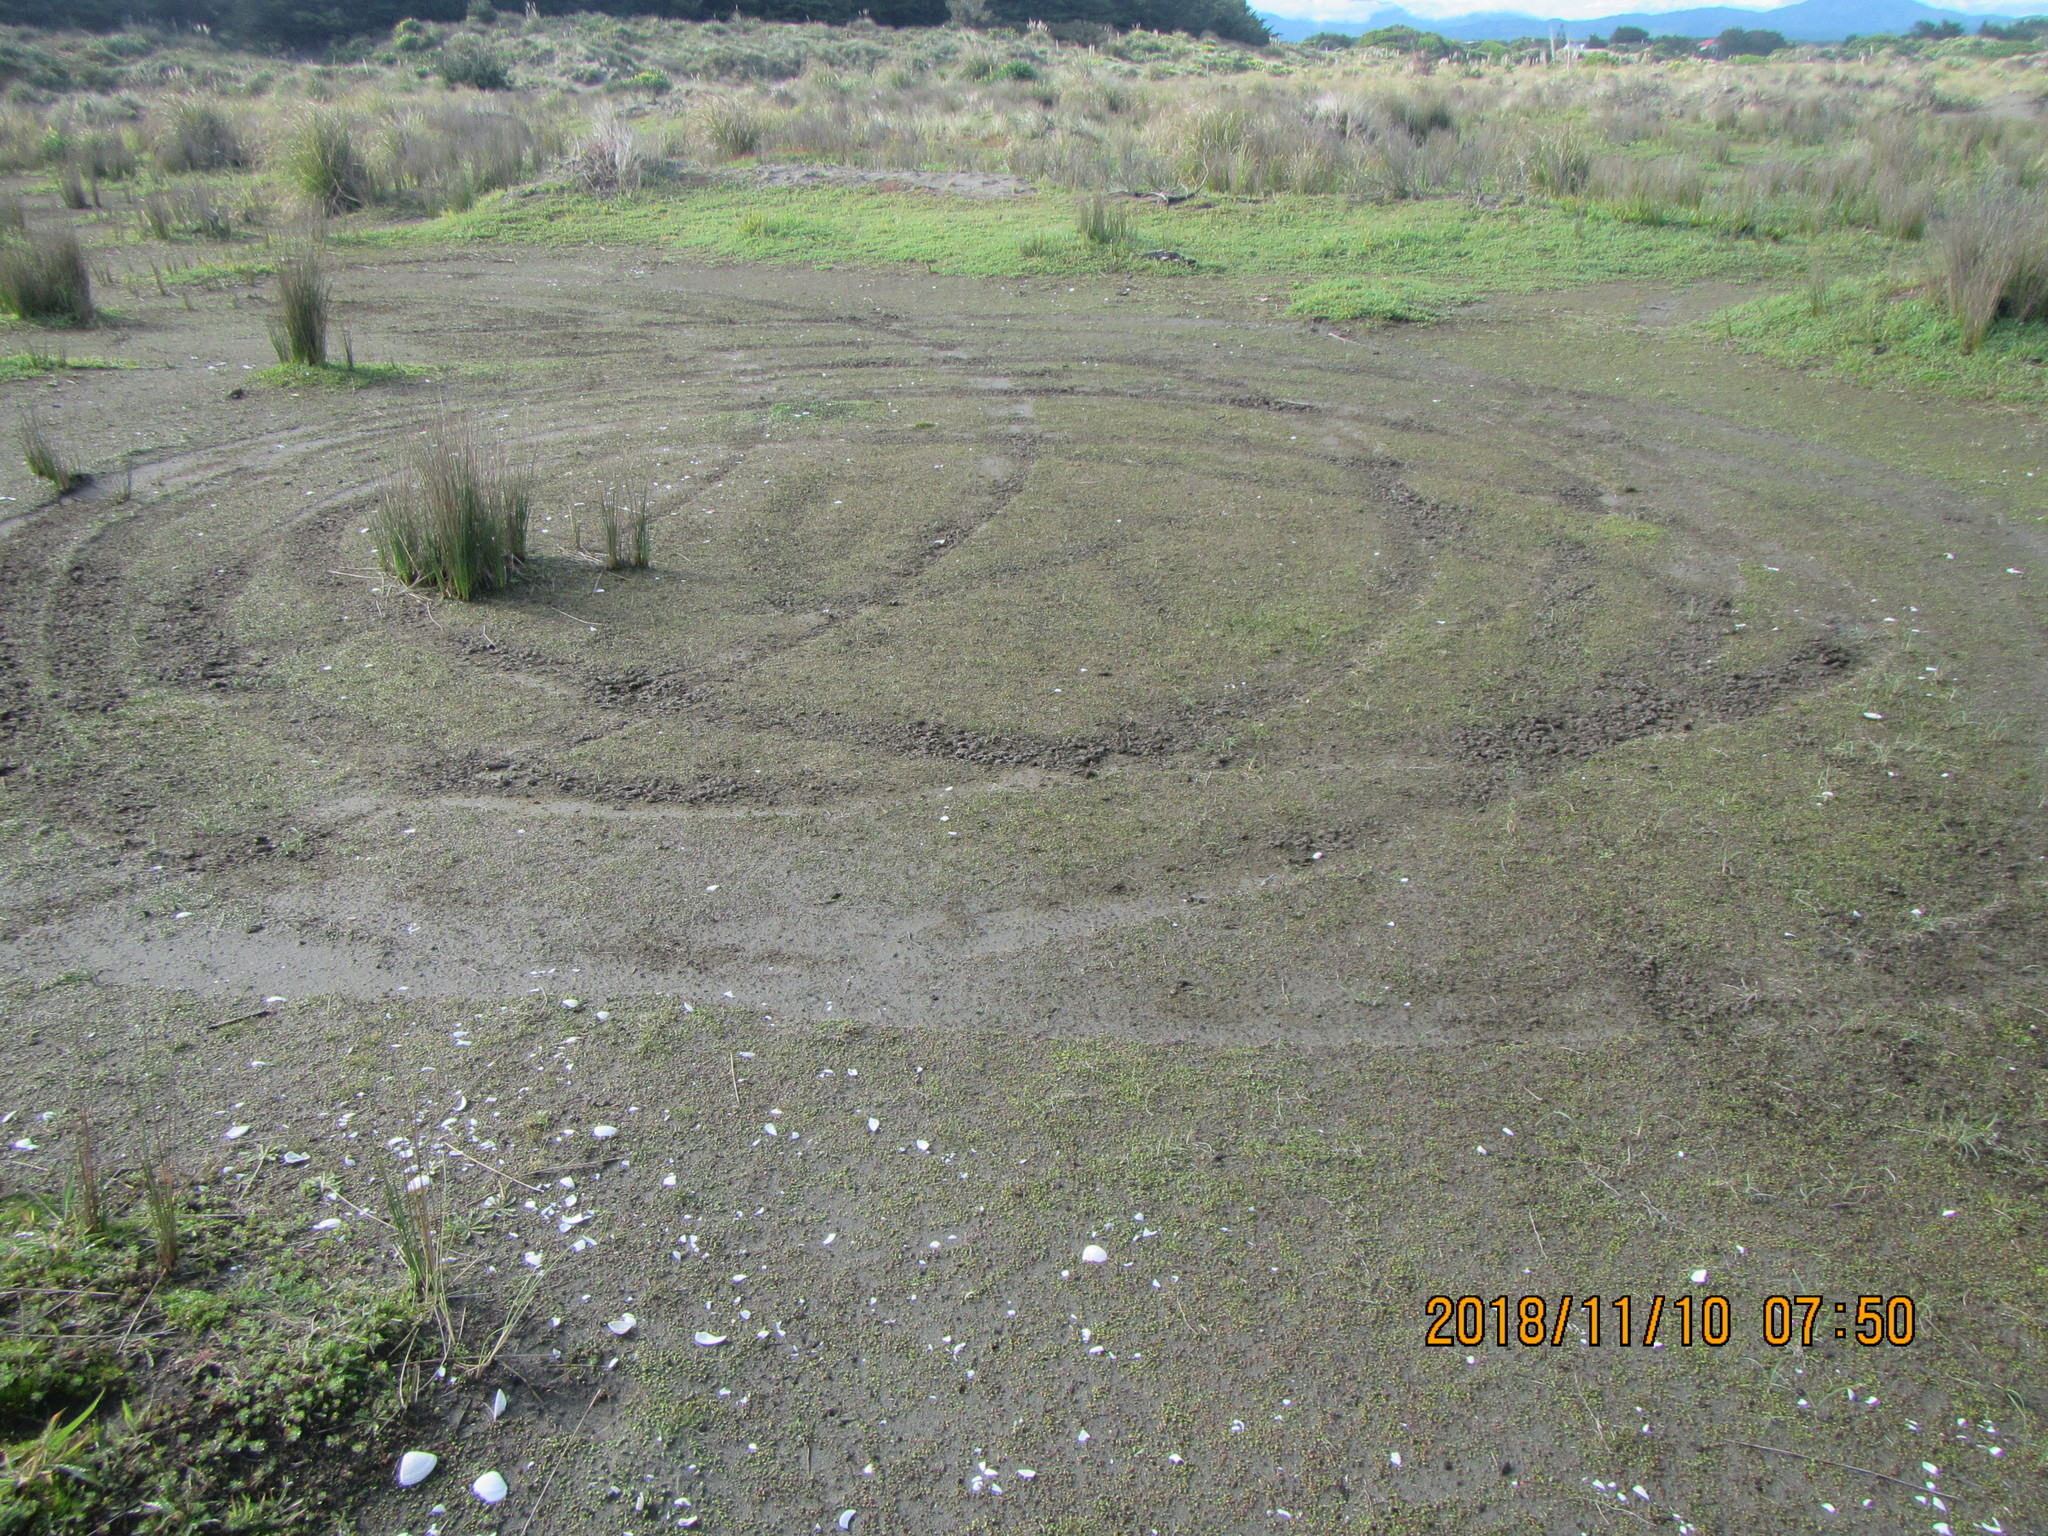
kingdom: Plantae
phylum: Tracheophyta
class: Magnoliopsida
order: Asterales
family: Goodeniaceae
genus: Goodenia
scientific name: Goodenia heenanii
